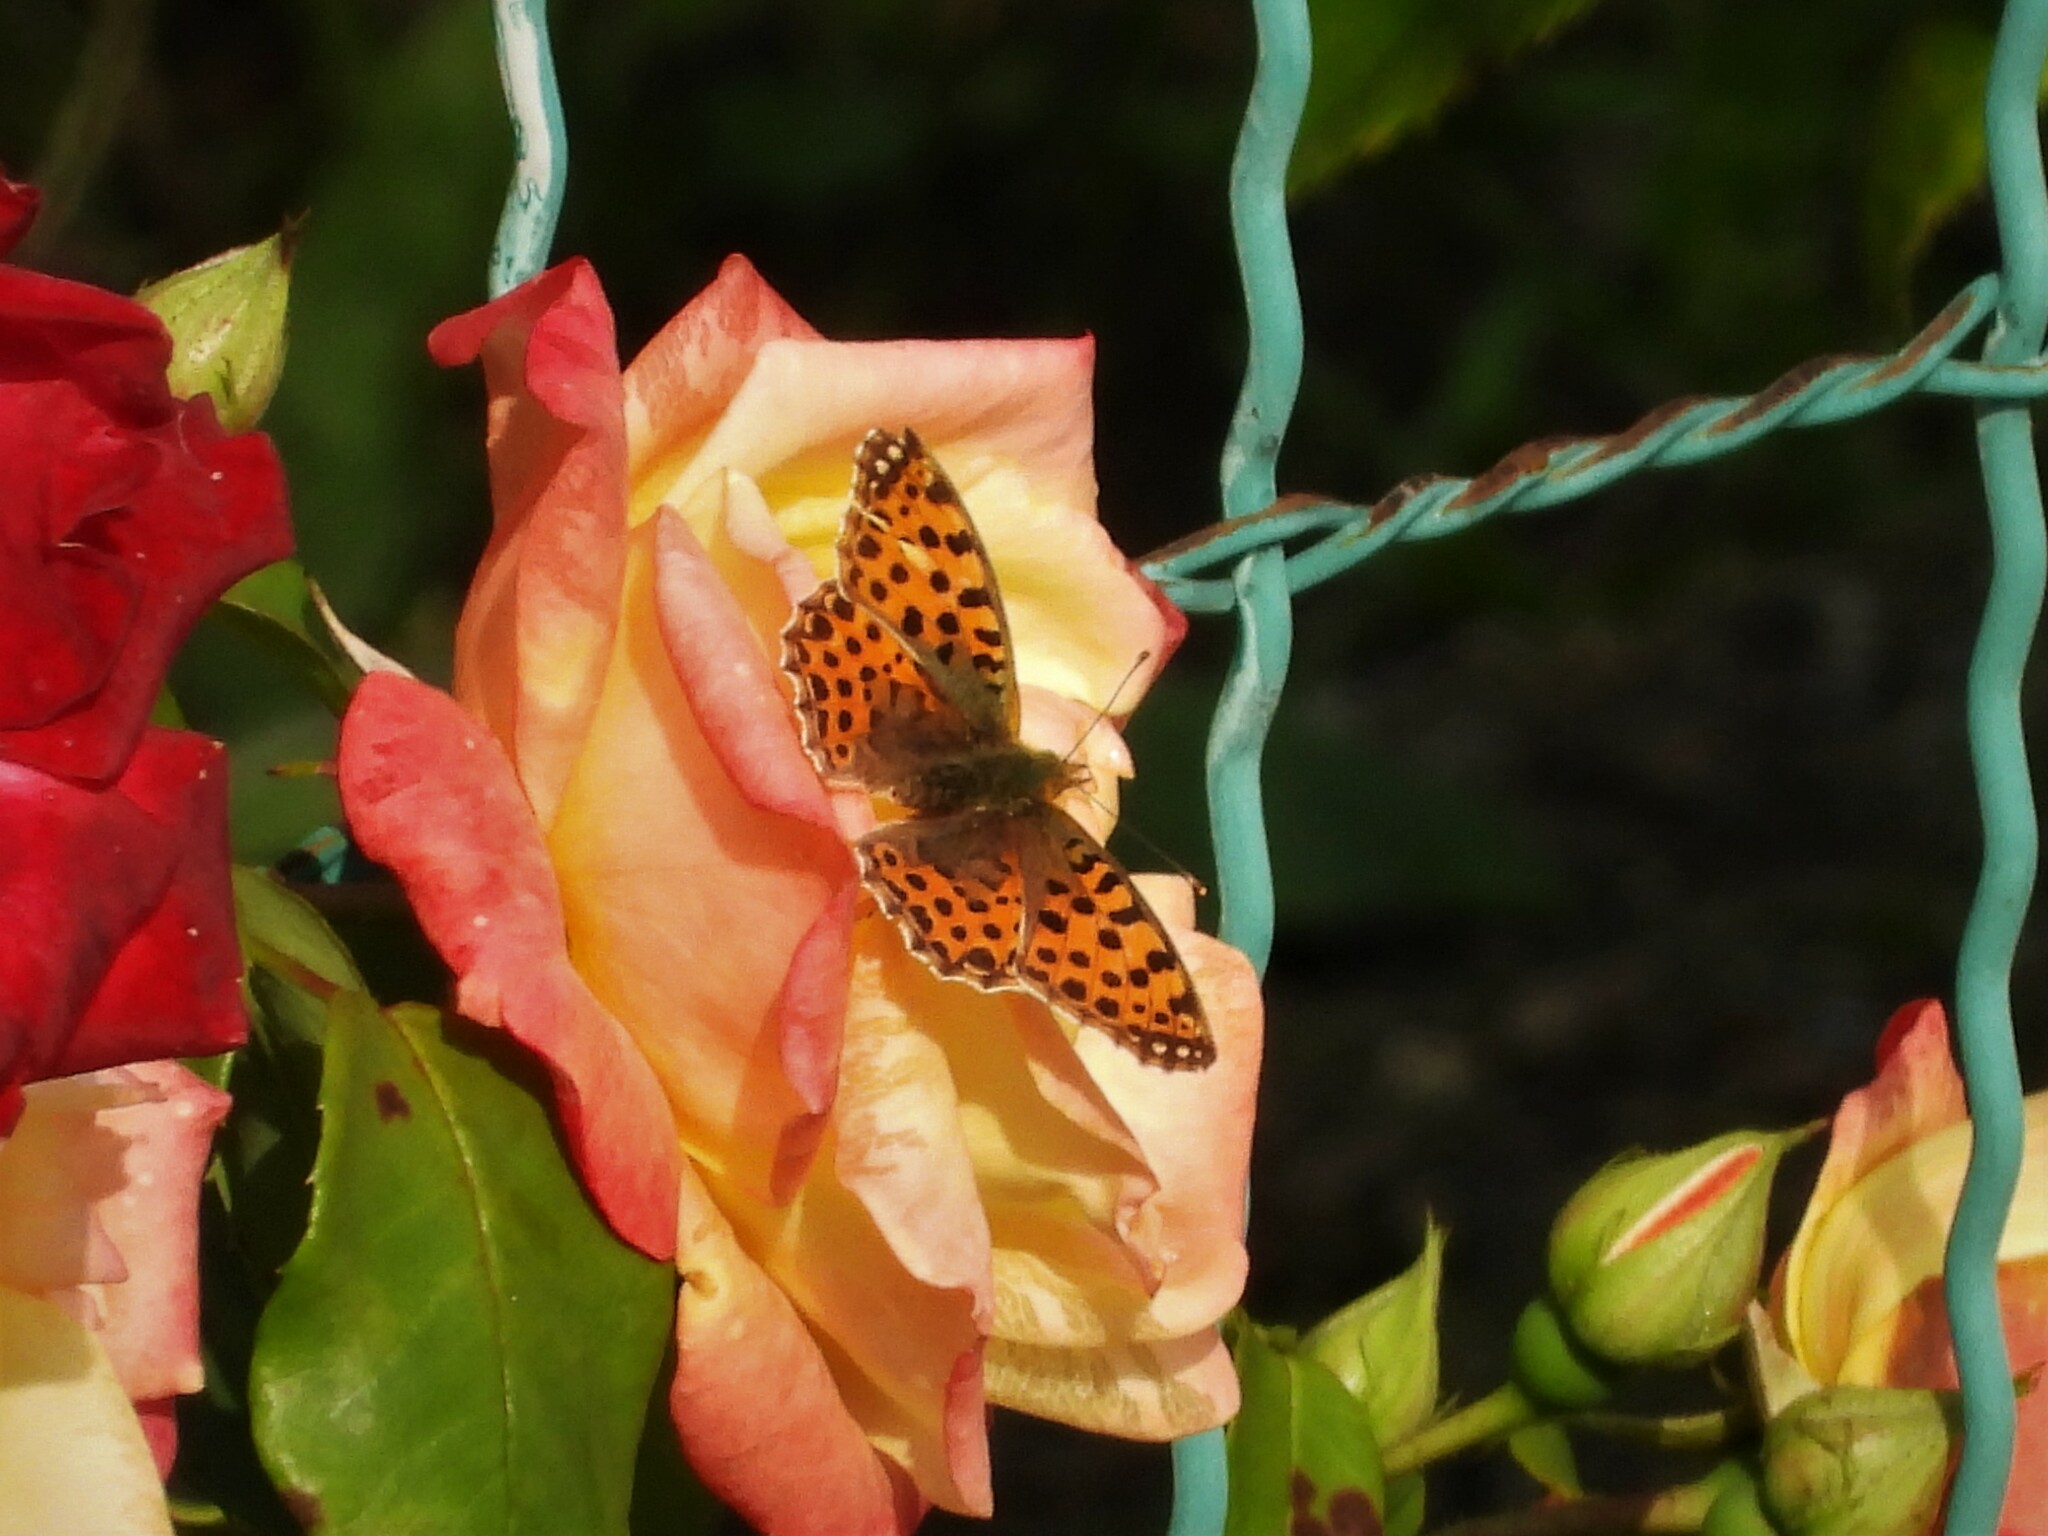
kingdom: Animalia
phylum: Arthropoda
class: Insecta
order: Lepidoptera
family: Nymphalidae
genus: Issoria
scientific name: Issoria lathonia
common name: Queen of spain fritillary
